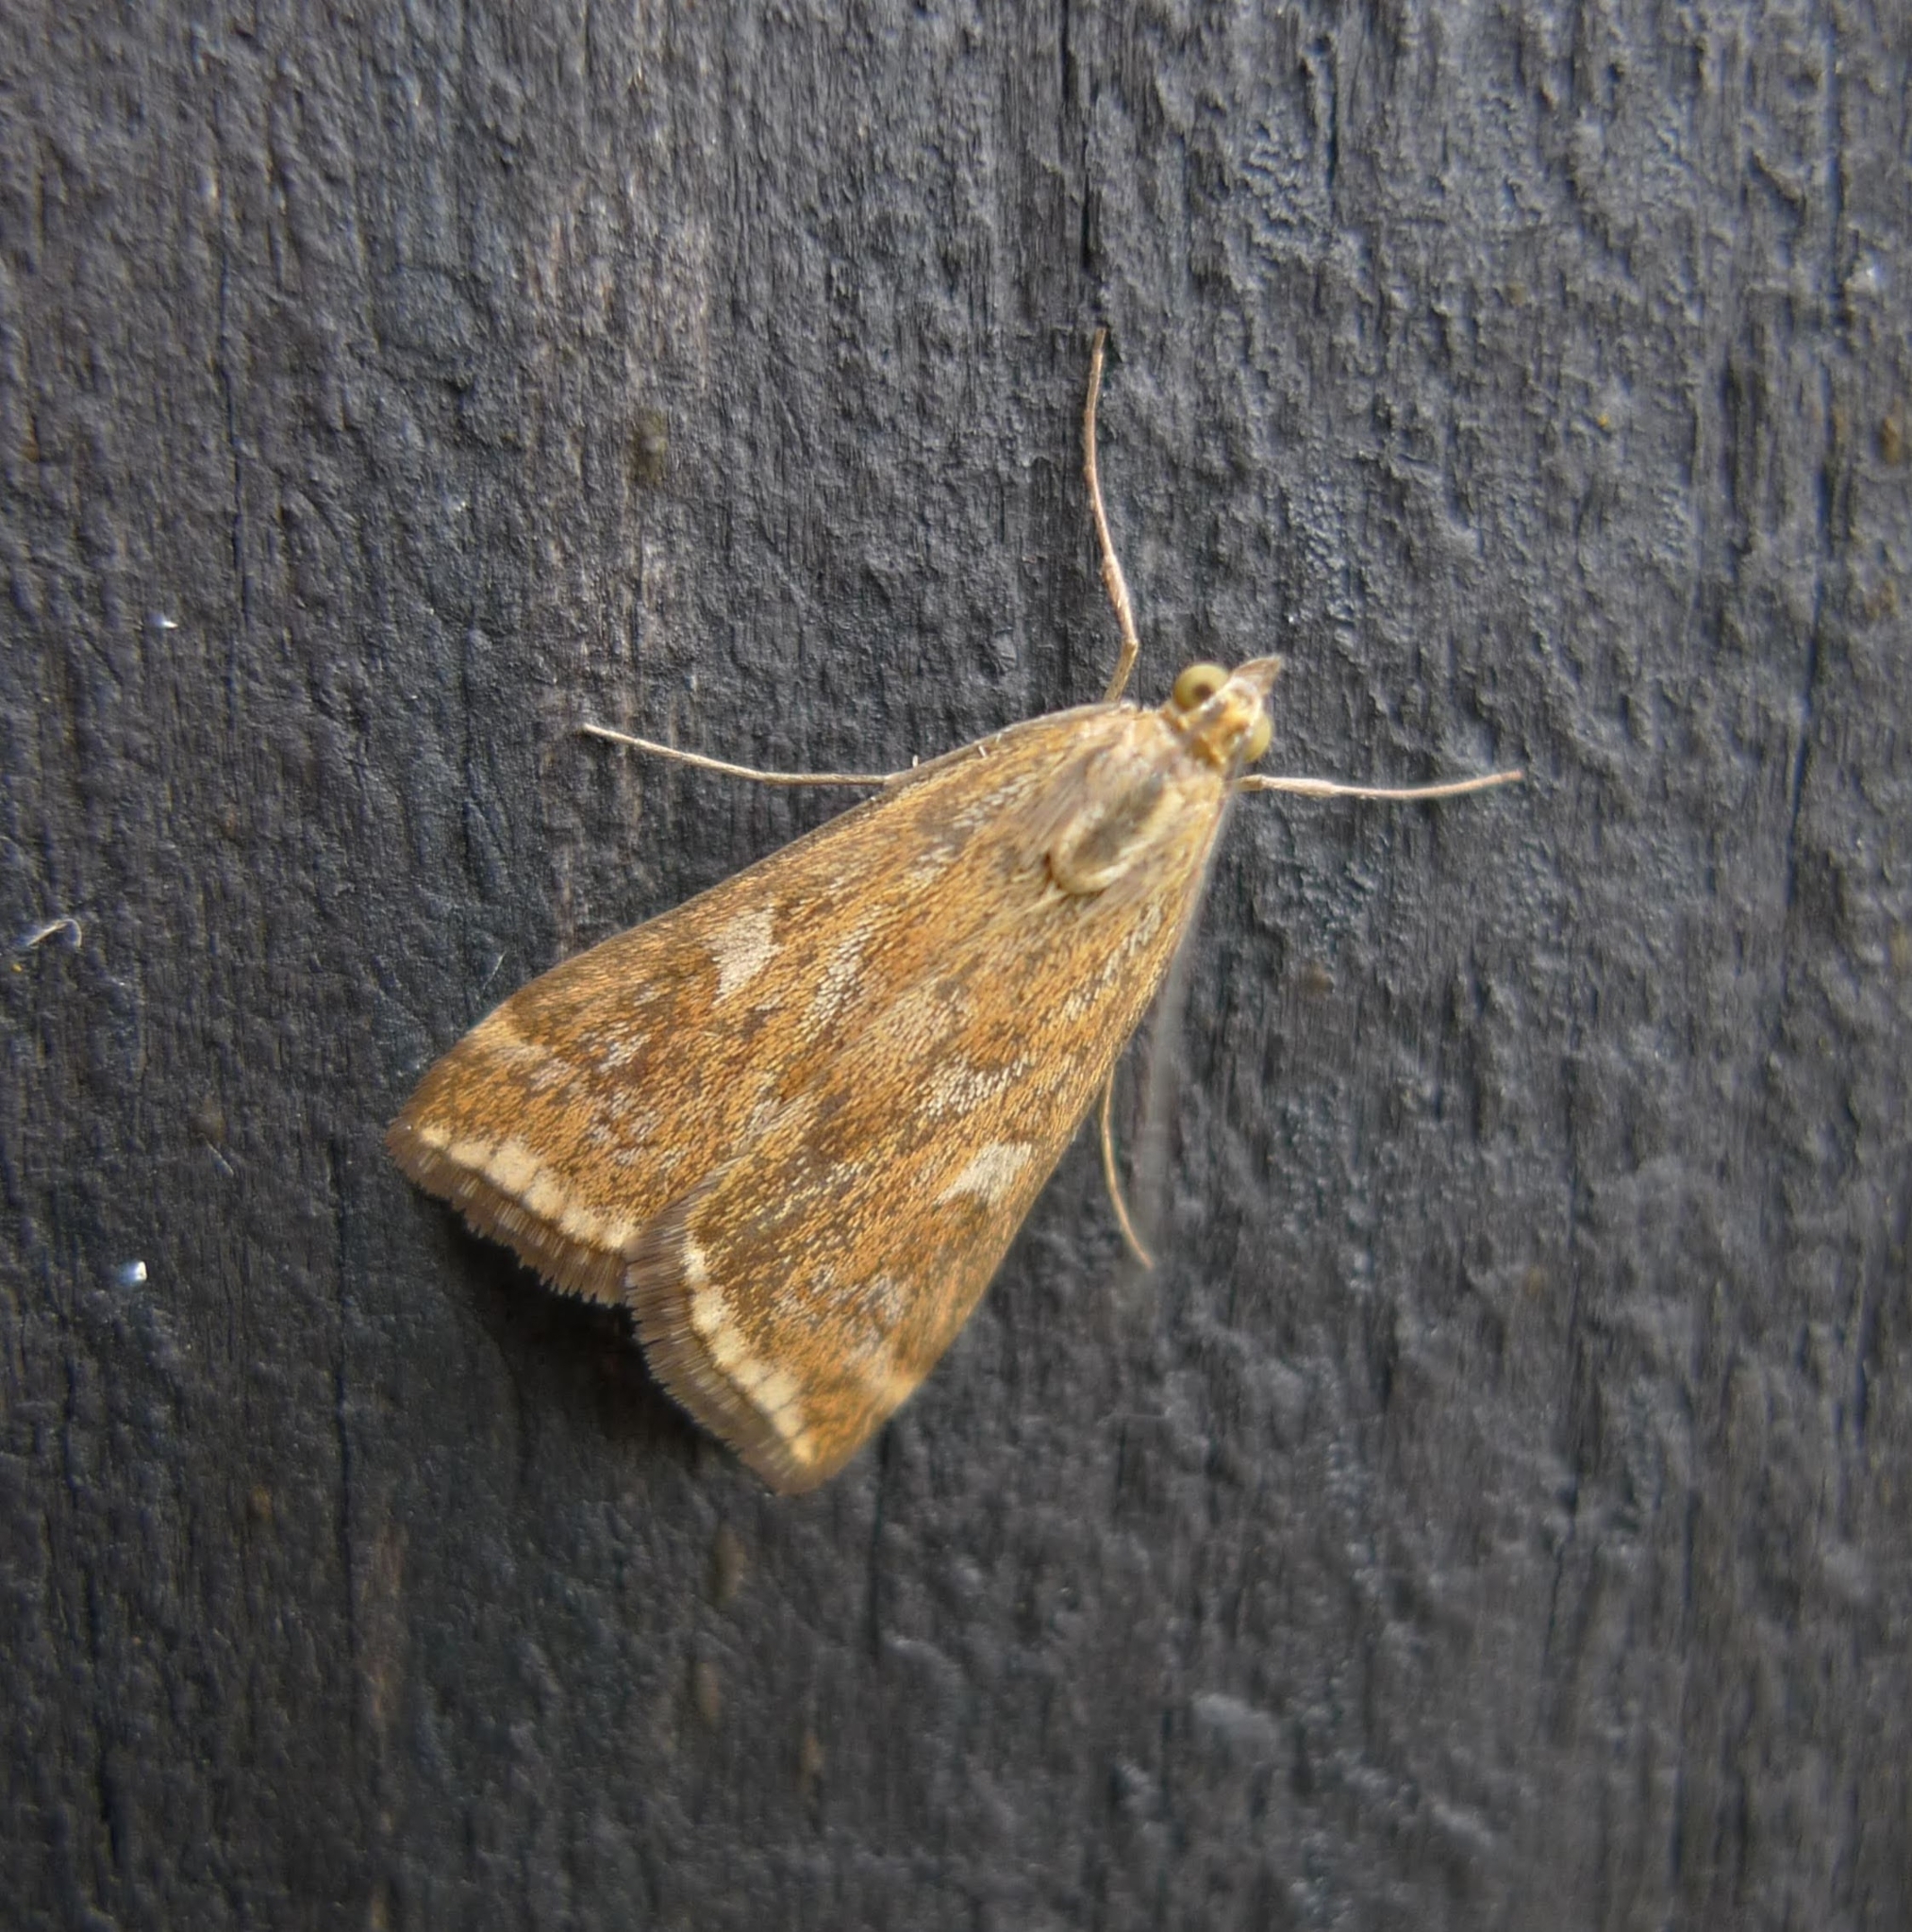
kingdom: Animalia
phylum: Arthropoda
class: Insecta
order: Lepidoptera
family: Crambidae
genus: Loxostege
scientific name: Loxostege sticticalis
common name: Crambid moth
